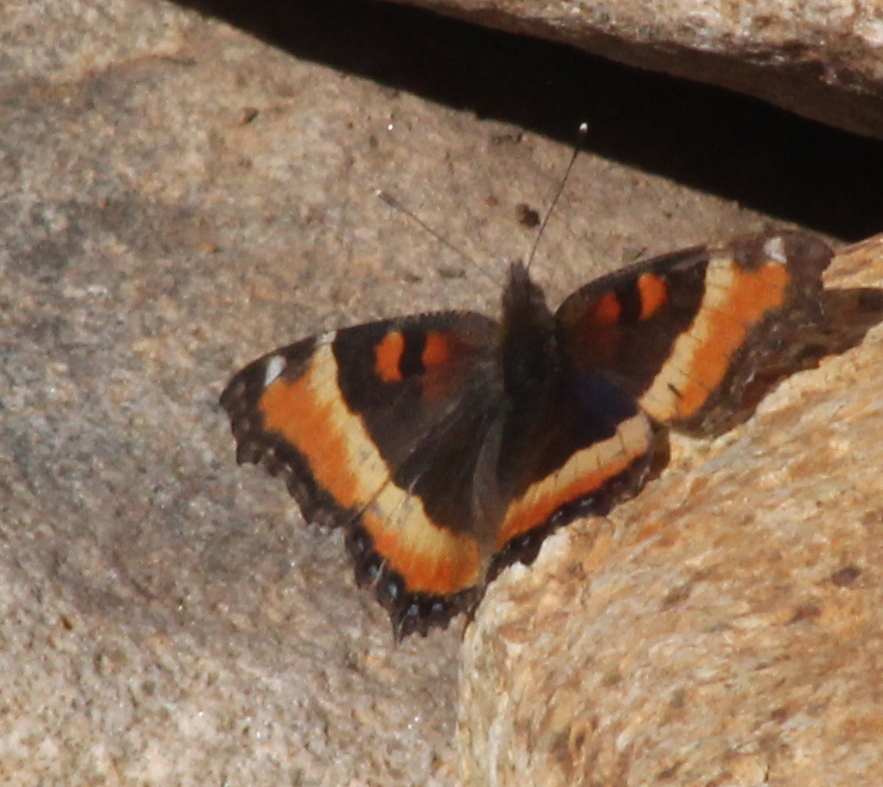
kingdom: Animalia
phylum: Arthropoda
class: Insecta
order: Lepidoptera
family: Nymphalidae
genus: Aglais
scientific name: Aglais milberti
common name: Milbert's tortoiseshell
